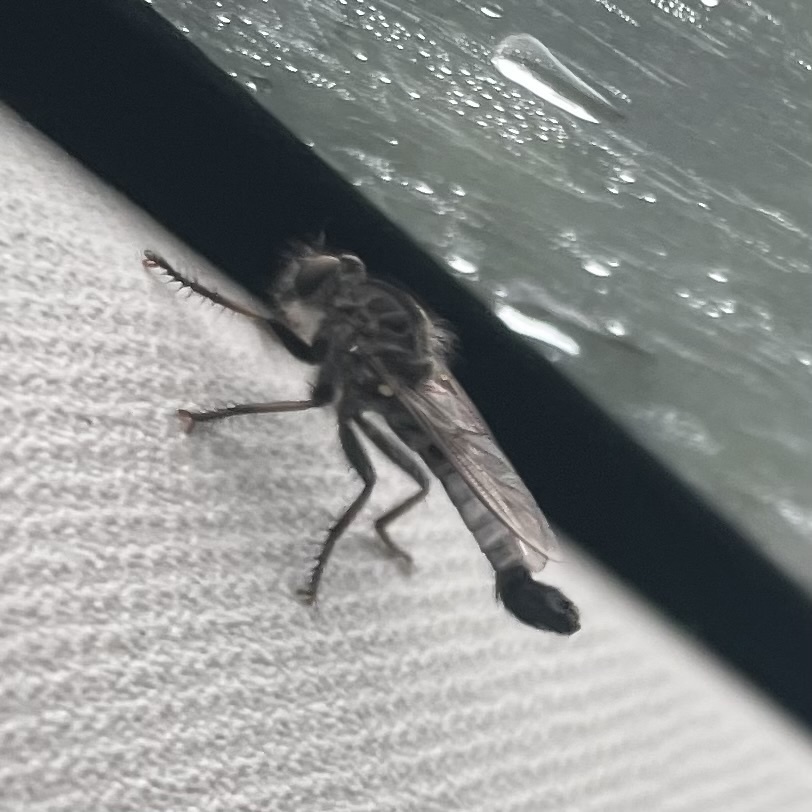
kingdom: Animalia
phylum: Arthropoda
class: Insecta
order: Diptera
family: Asilidae
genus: Efferia
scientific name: Efferia aestuans
